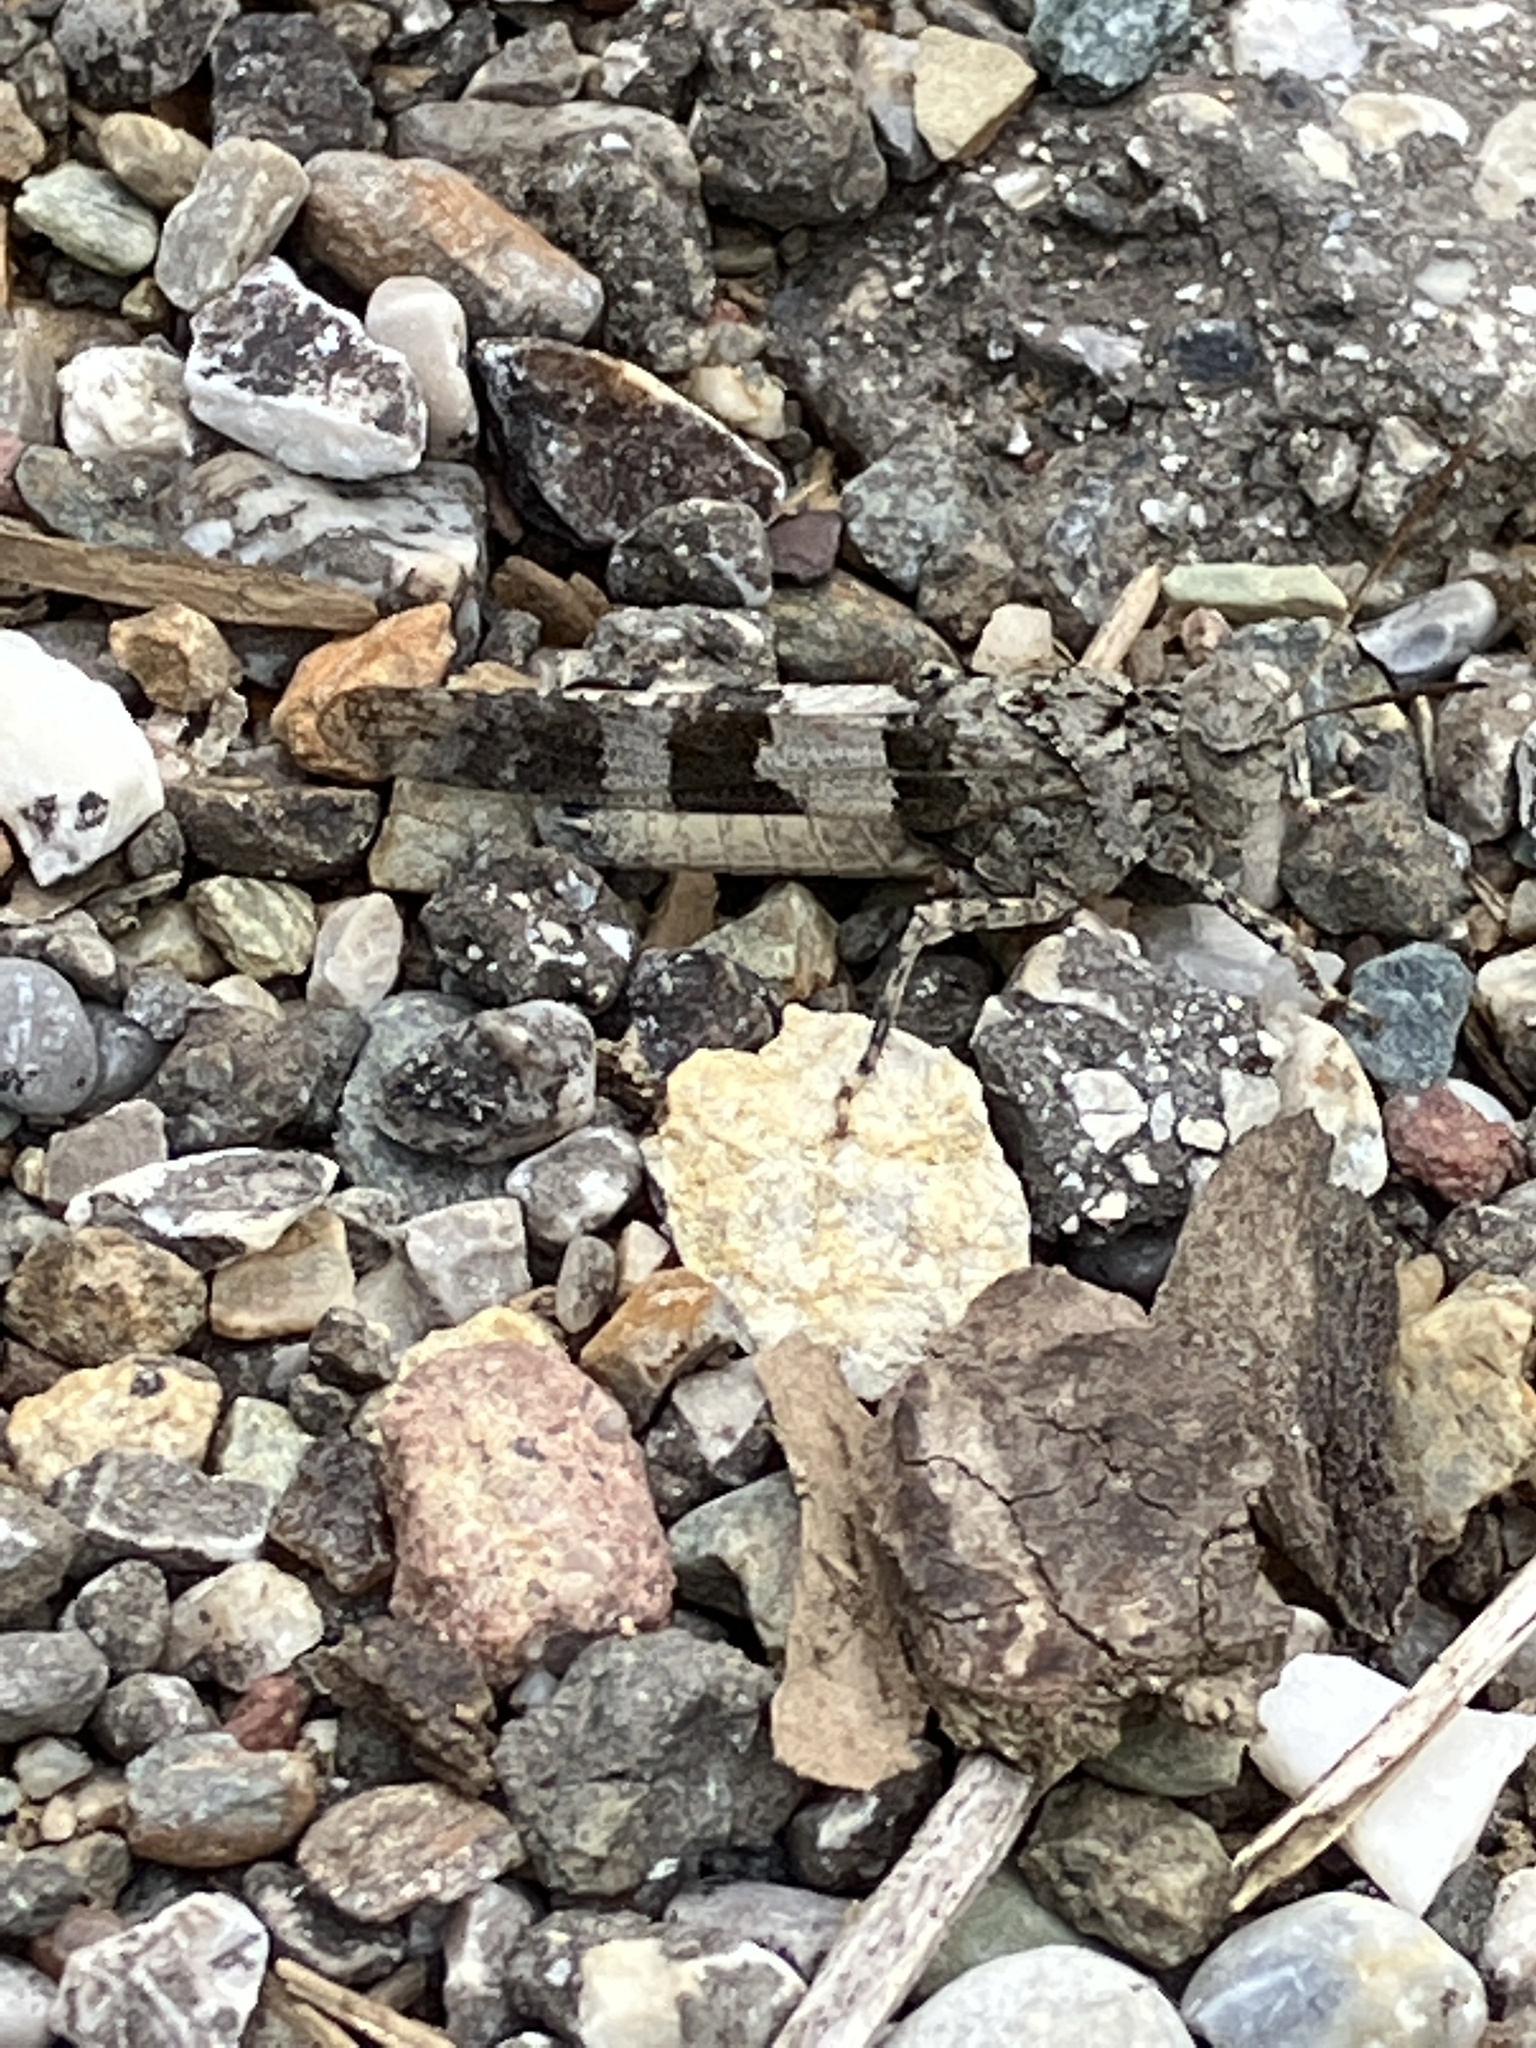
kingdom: Animalia
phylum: Arthropoda
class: Insecta
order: Orthoptera
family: Acrididae
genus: Oedipoda
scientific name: Oedipoda caerulescens
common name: Blue-winged grasshopper
